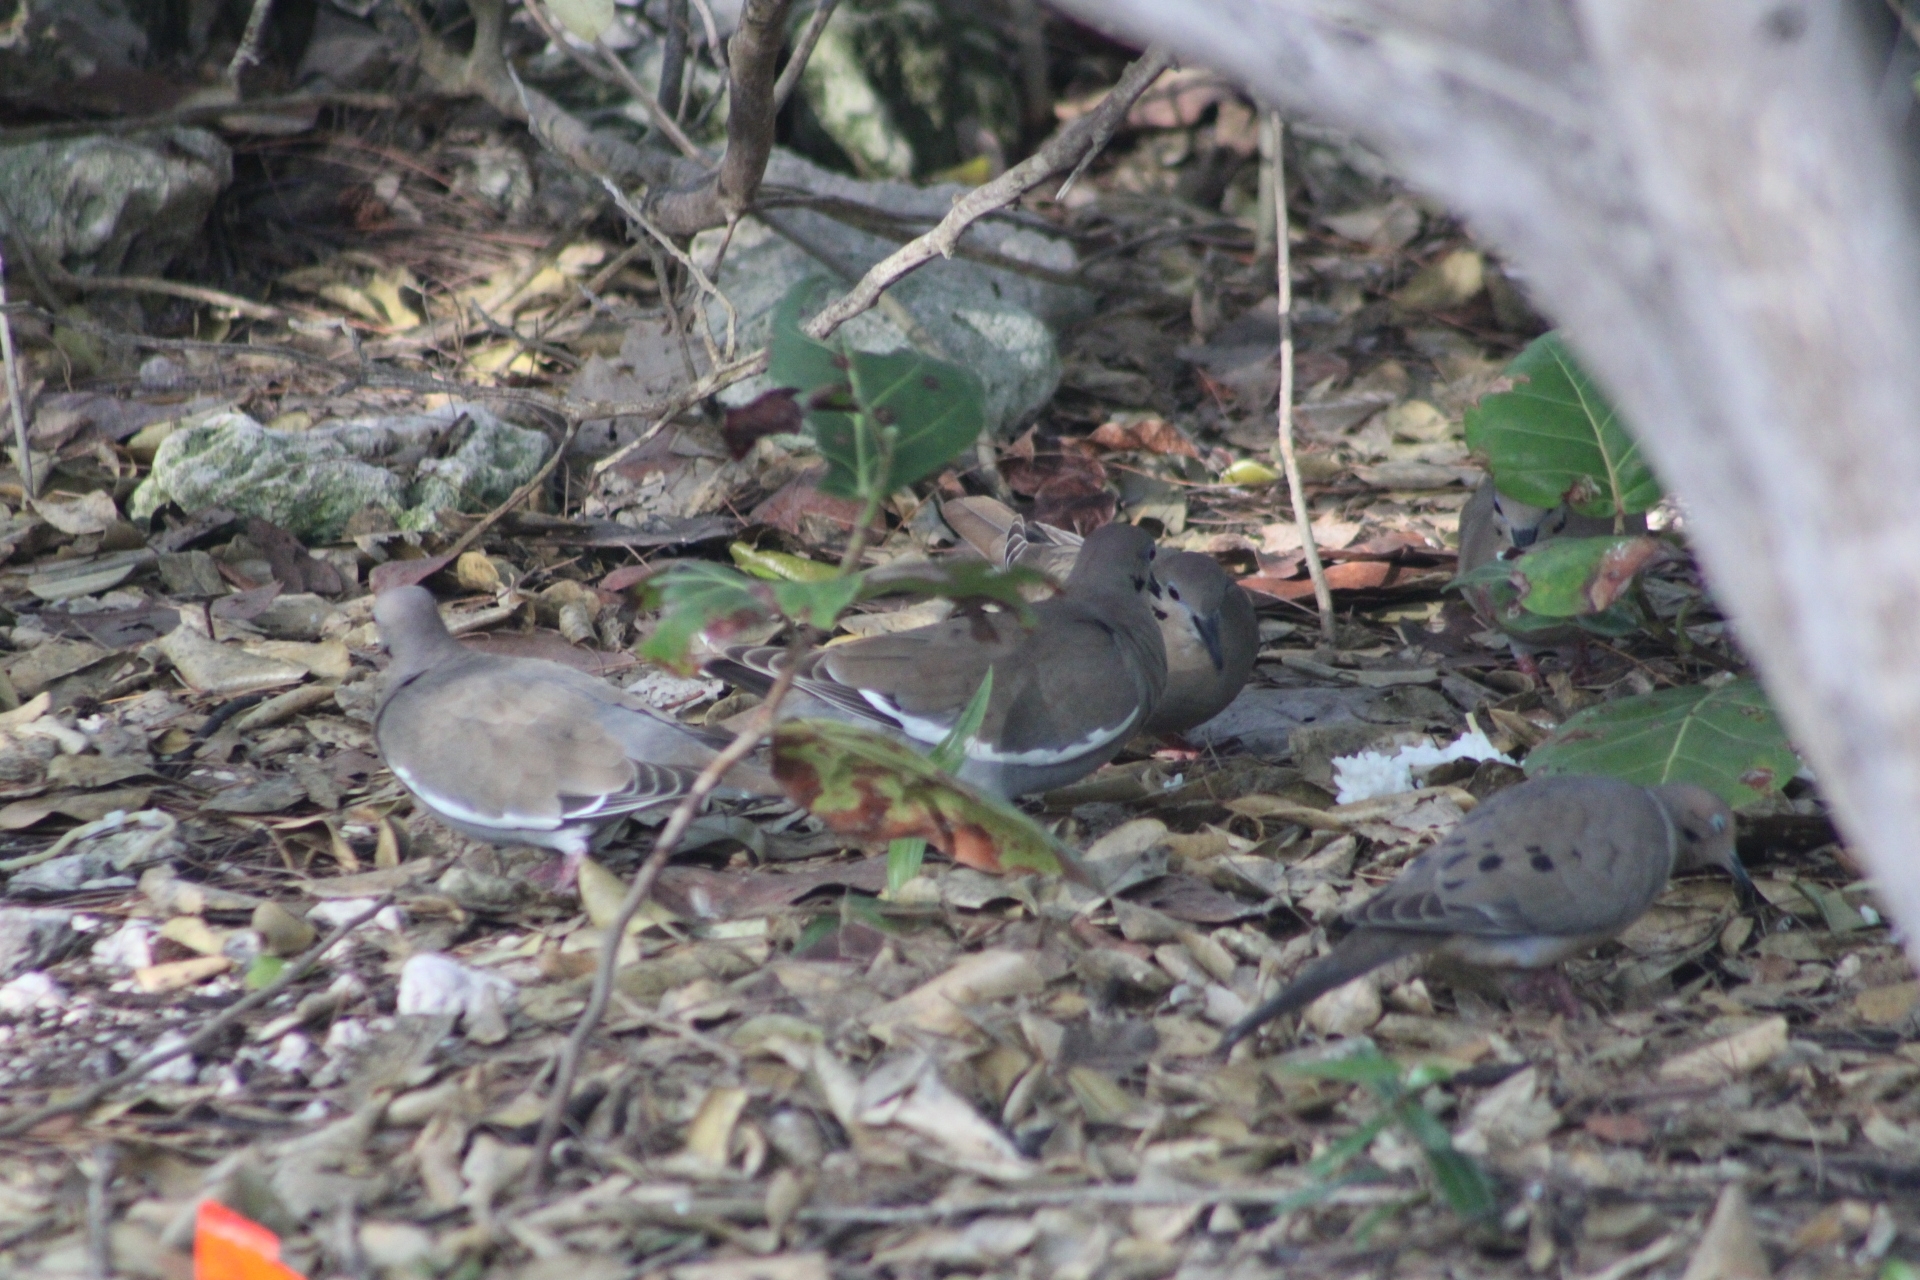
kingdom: Animalia
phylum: Chordata
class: Aves
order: Columbiformes
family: Columbidae
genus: Zenaida
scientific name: Zenaida asiatica
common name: White-winged dove
